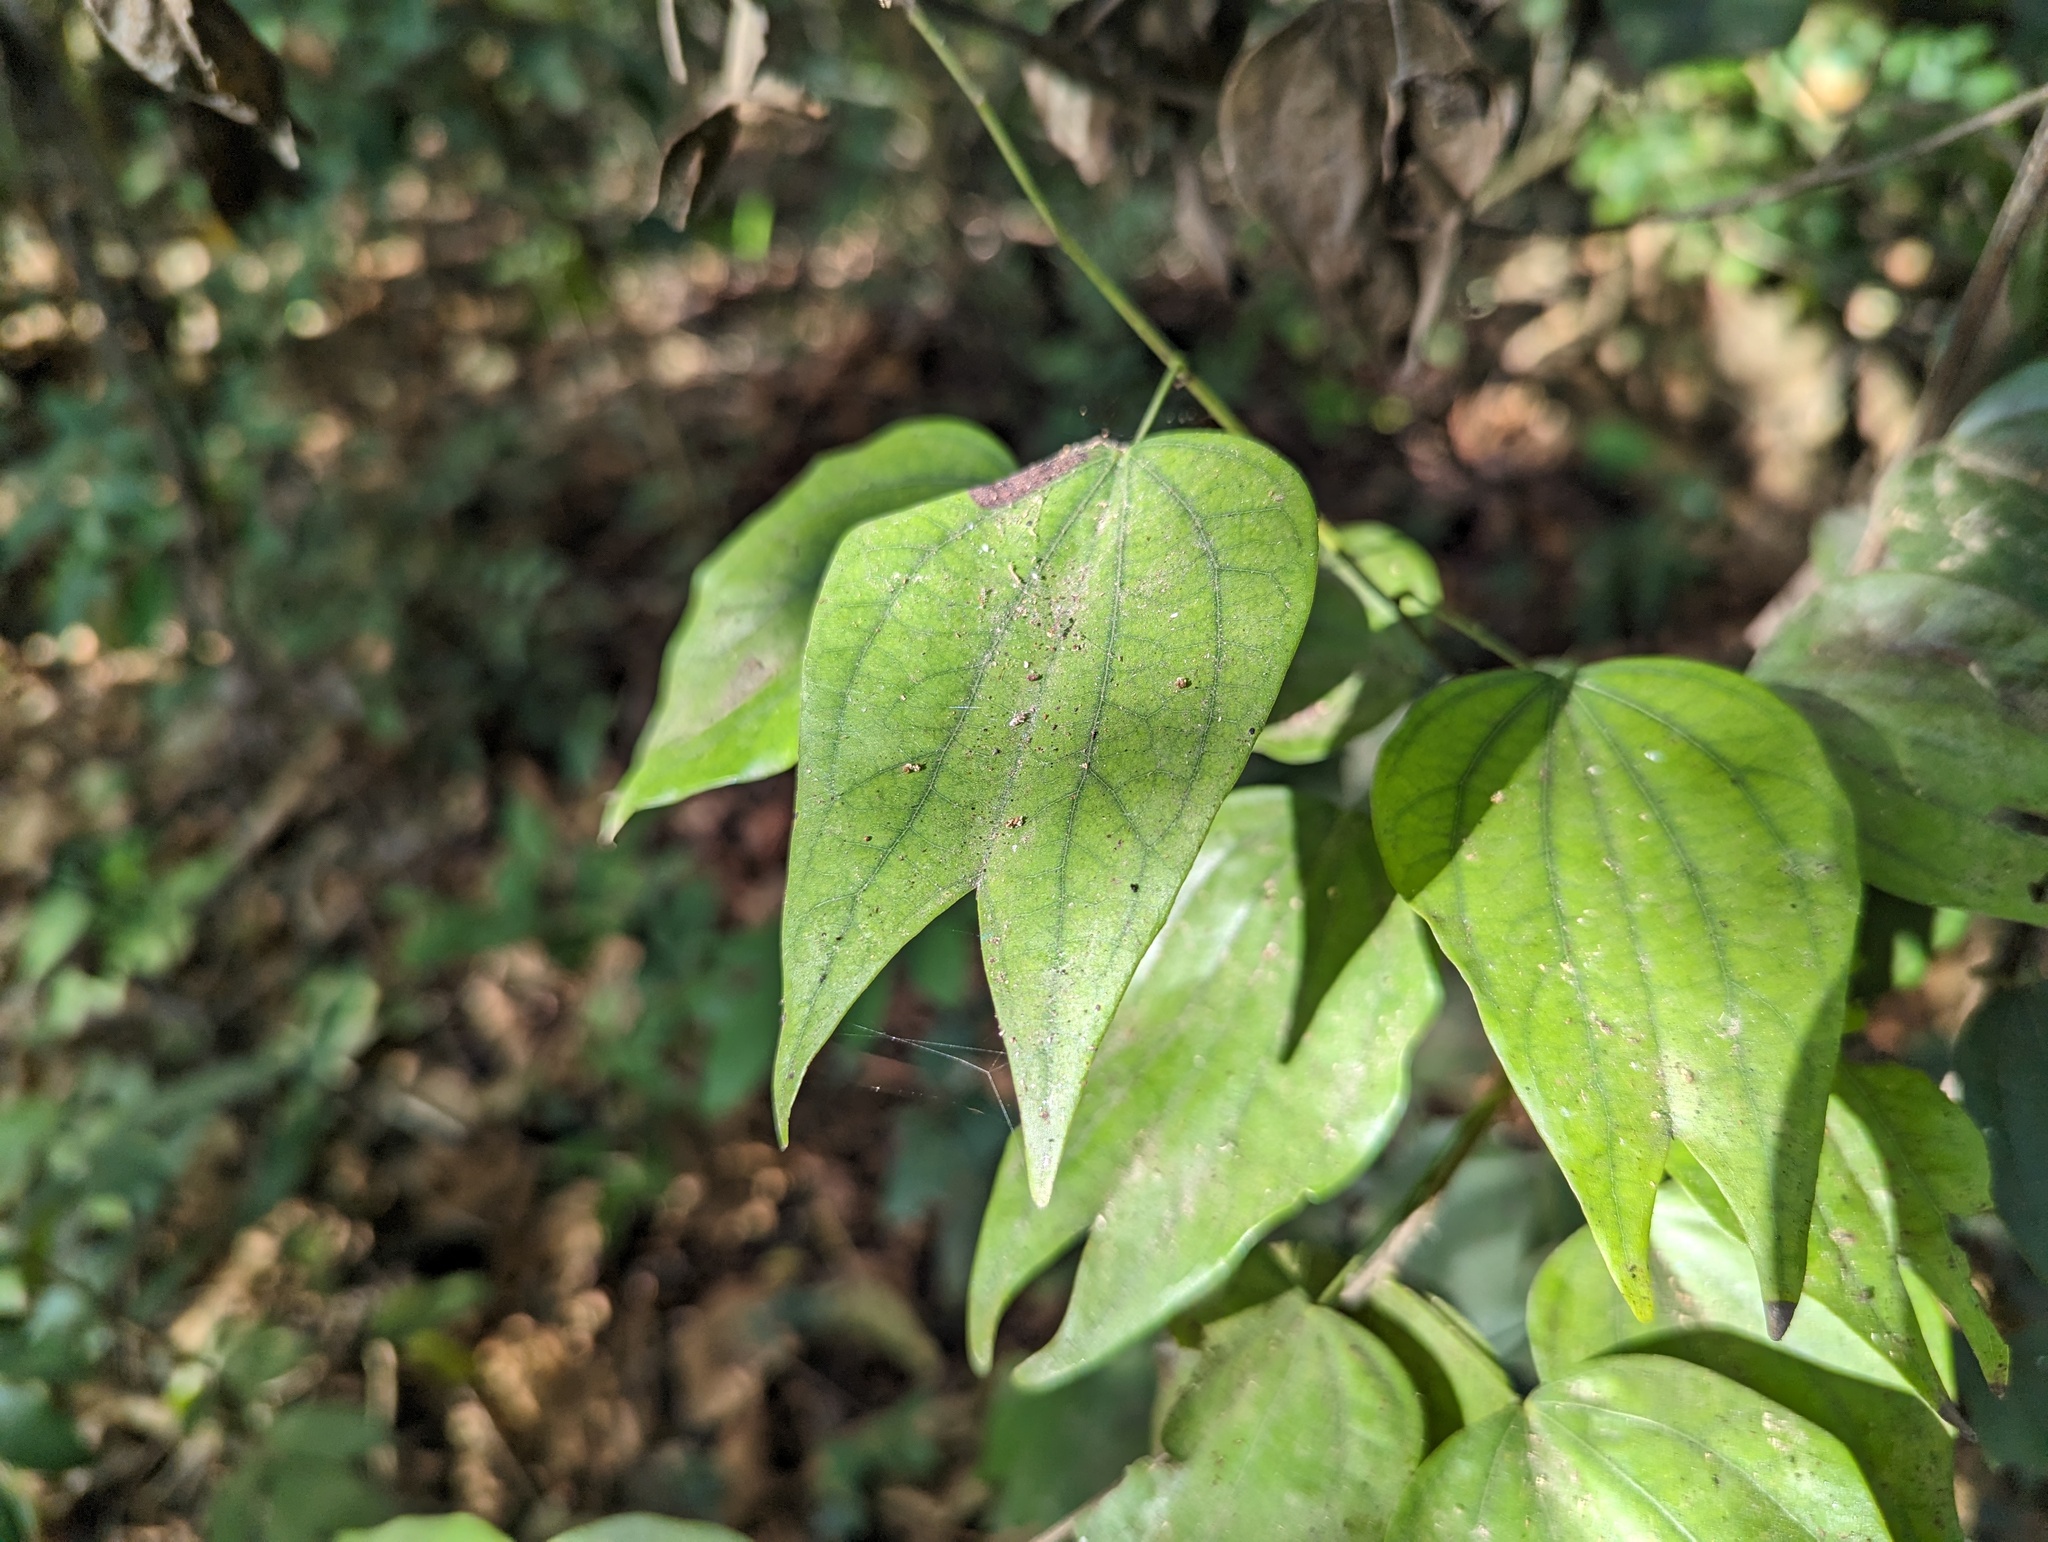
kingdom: Plantae
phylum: Tracheophyta
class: Magnoliopsida
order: Fabales
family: Fabaceae
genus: Phanera
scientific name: Phanera championii
